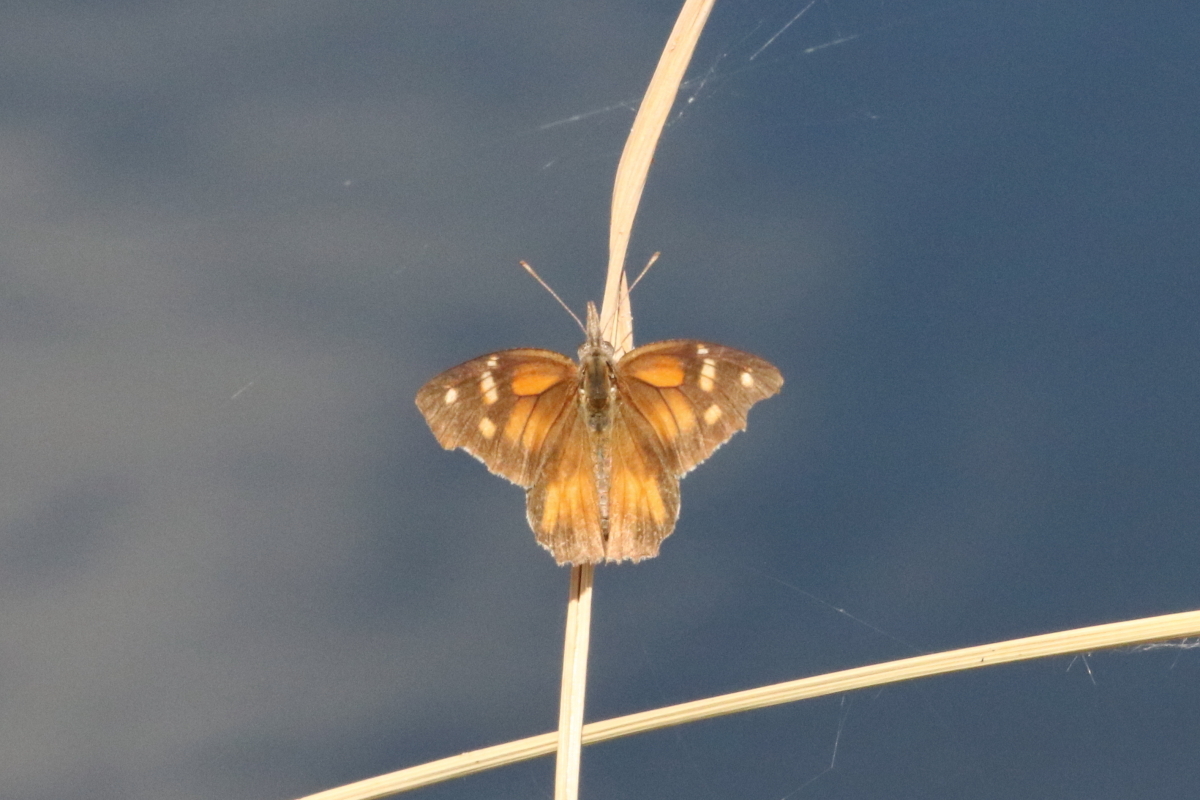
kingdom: Animalia
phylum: Arthropoda
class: Insecta
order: Lepidoptera
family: Nymphalidae
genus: Libytheana
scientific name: Libytheana carinenta
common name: American snout
